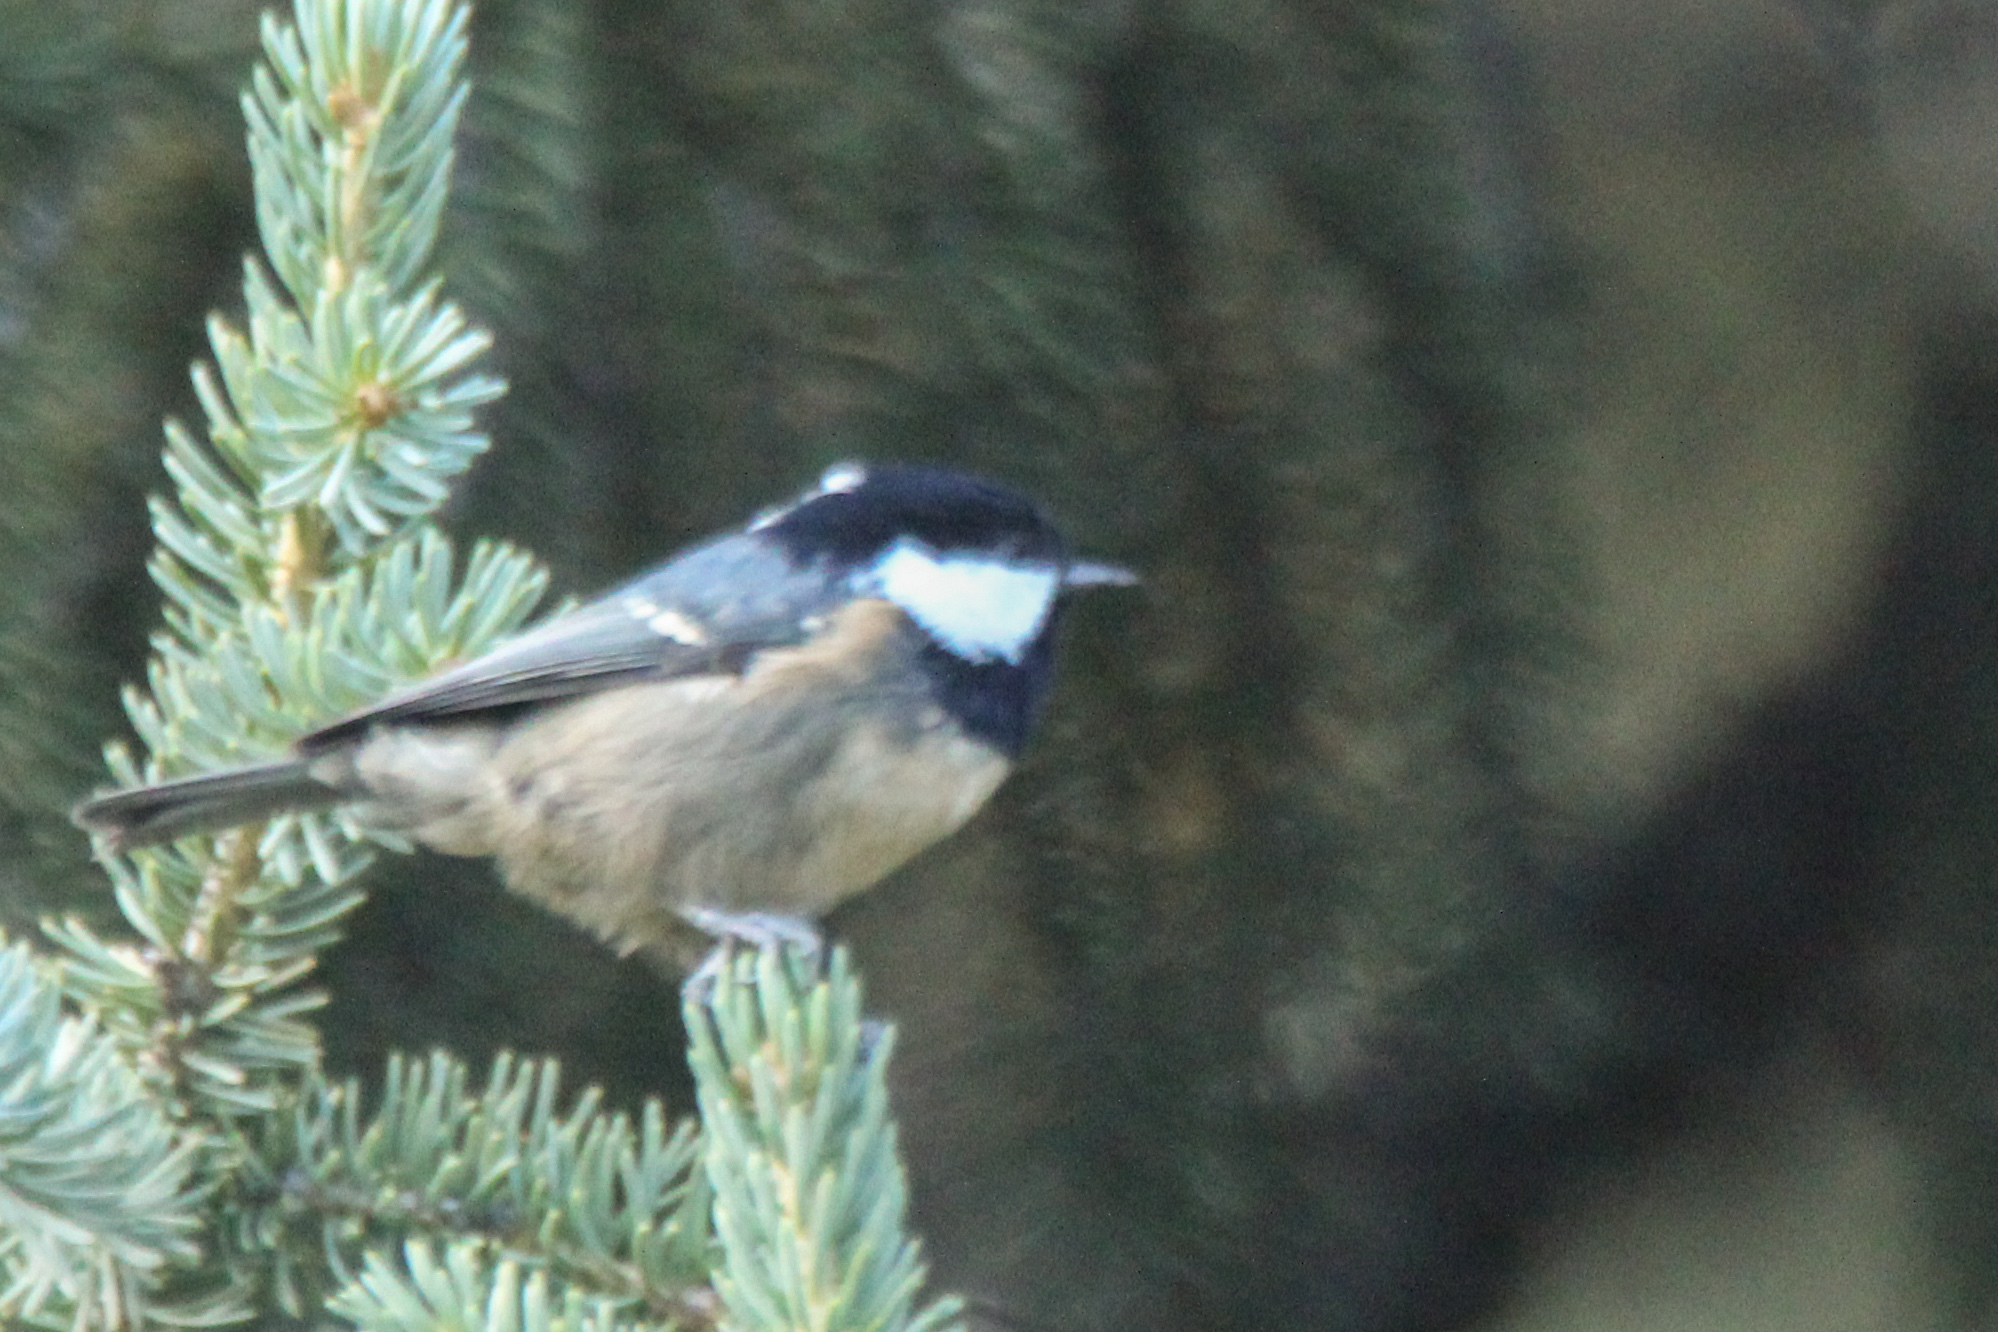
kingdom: Animalia
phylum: Chordata
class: Aves
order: Passeriformes
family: Paridae
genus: Periparus
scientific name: Periparus ater
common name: Coal tit
